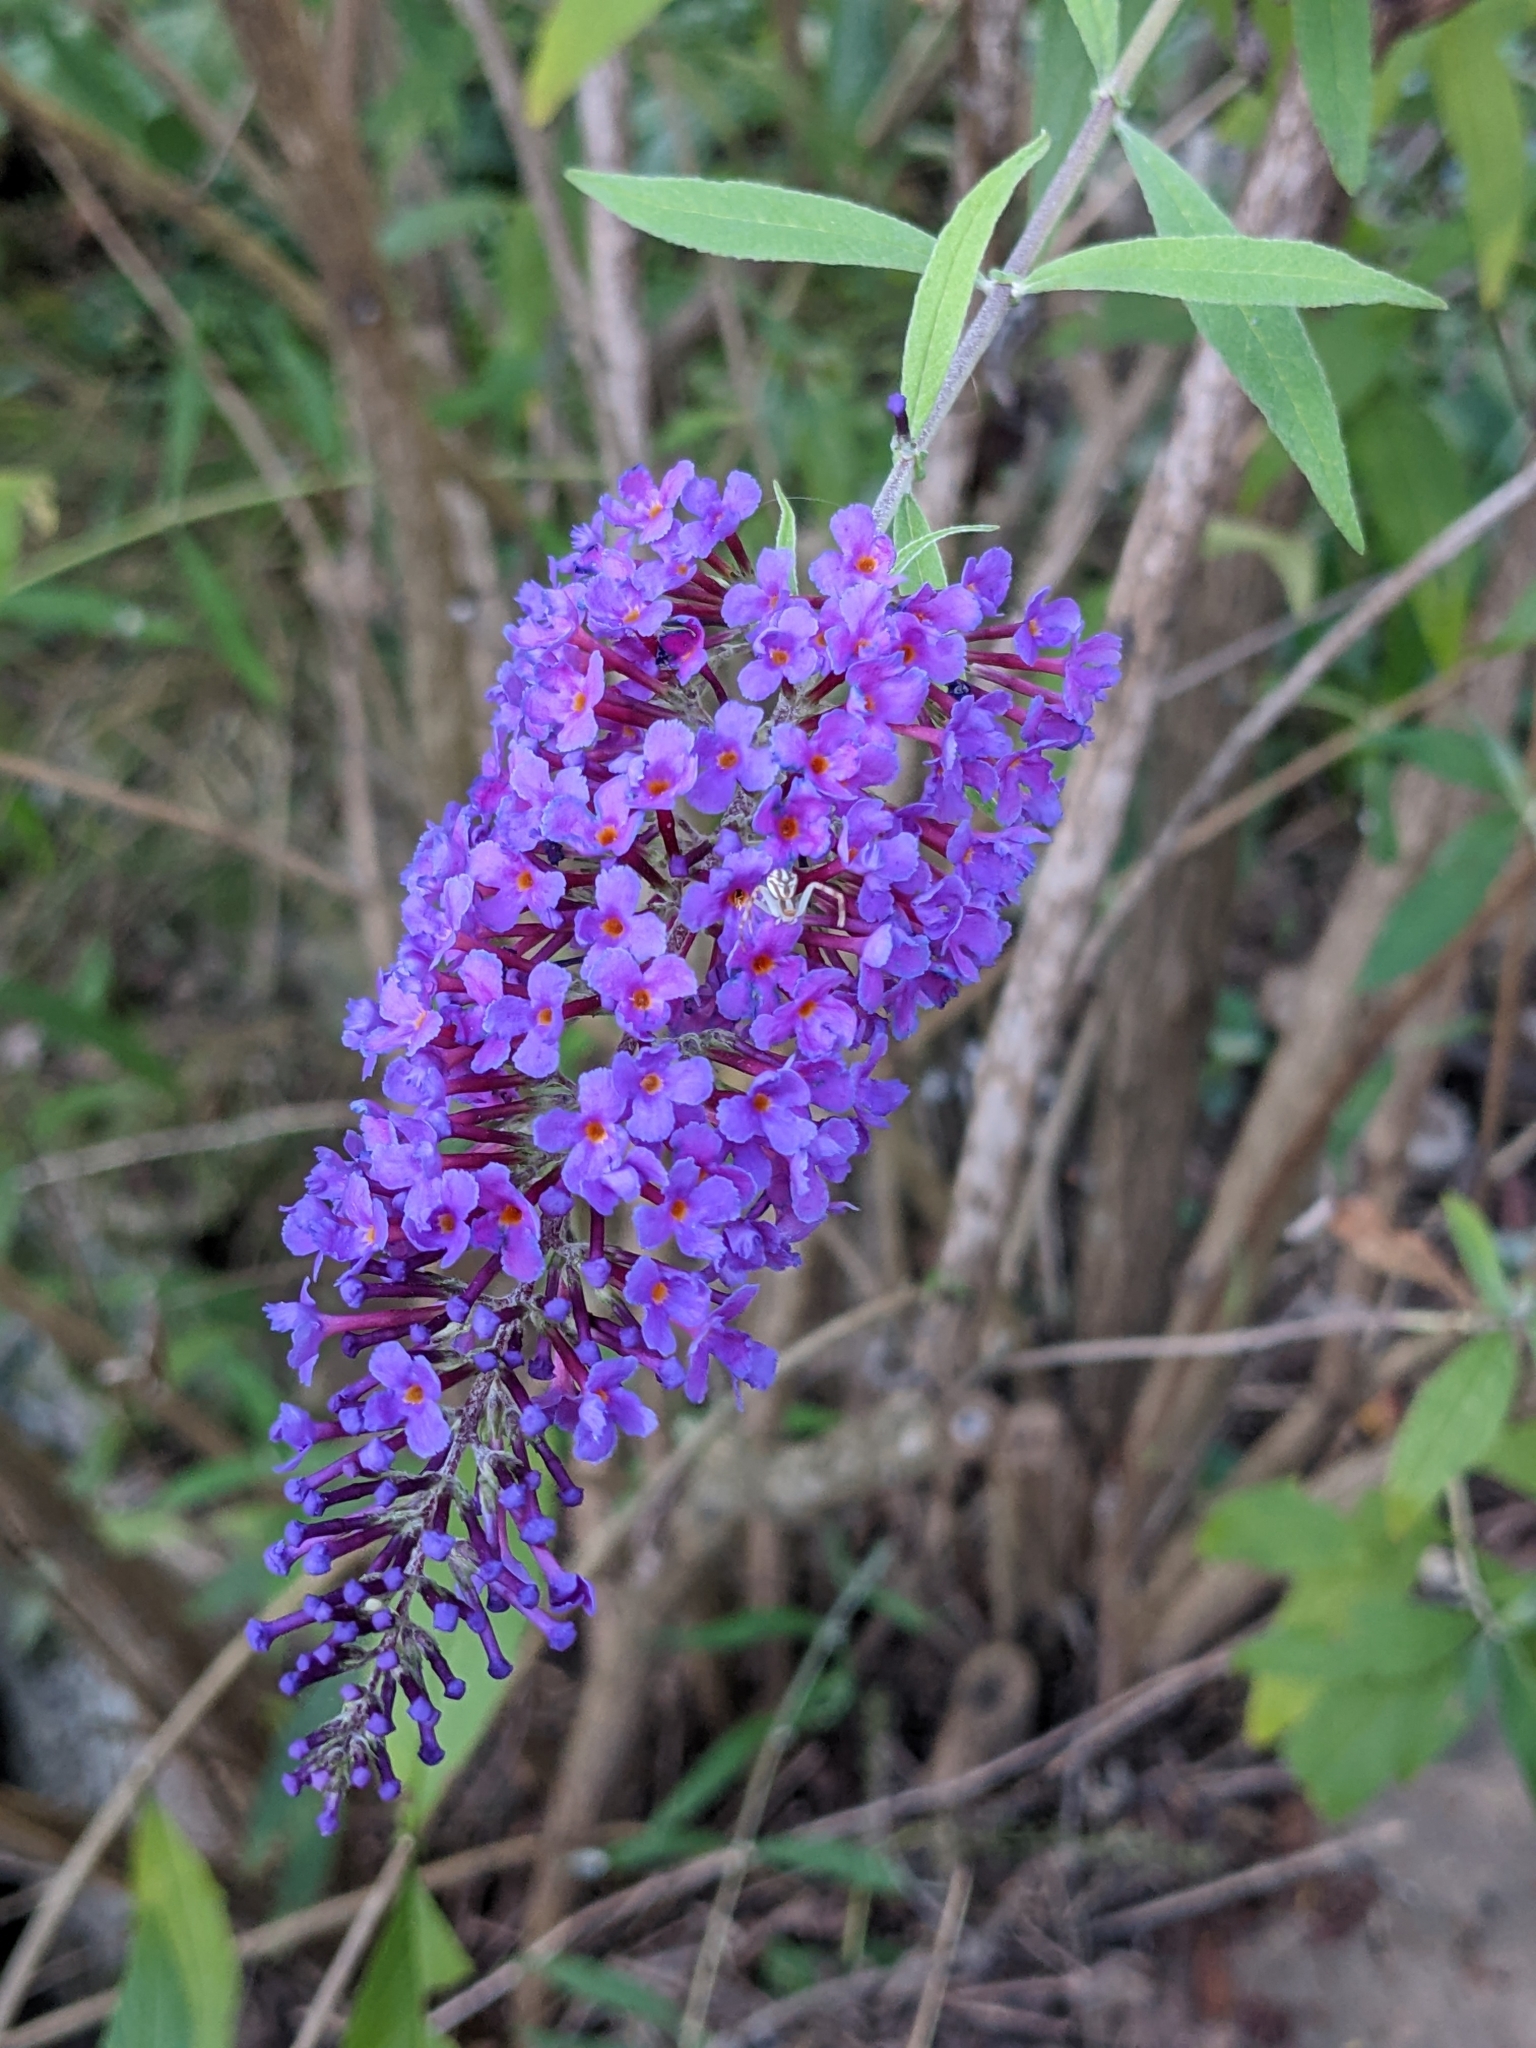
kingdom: Plantae
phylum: Tracheophyta
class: Magnoliopsida
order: Lamiales
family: Scrophulariaceae
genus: Buddleja
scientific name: Buddleja davidii
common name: Butterfly-bush
